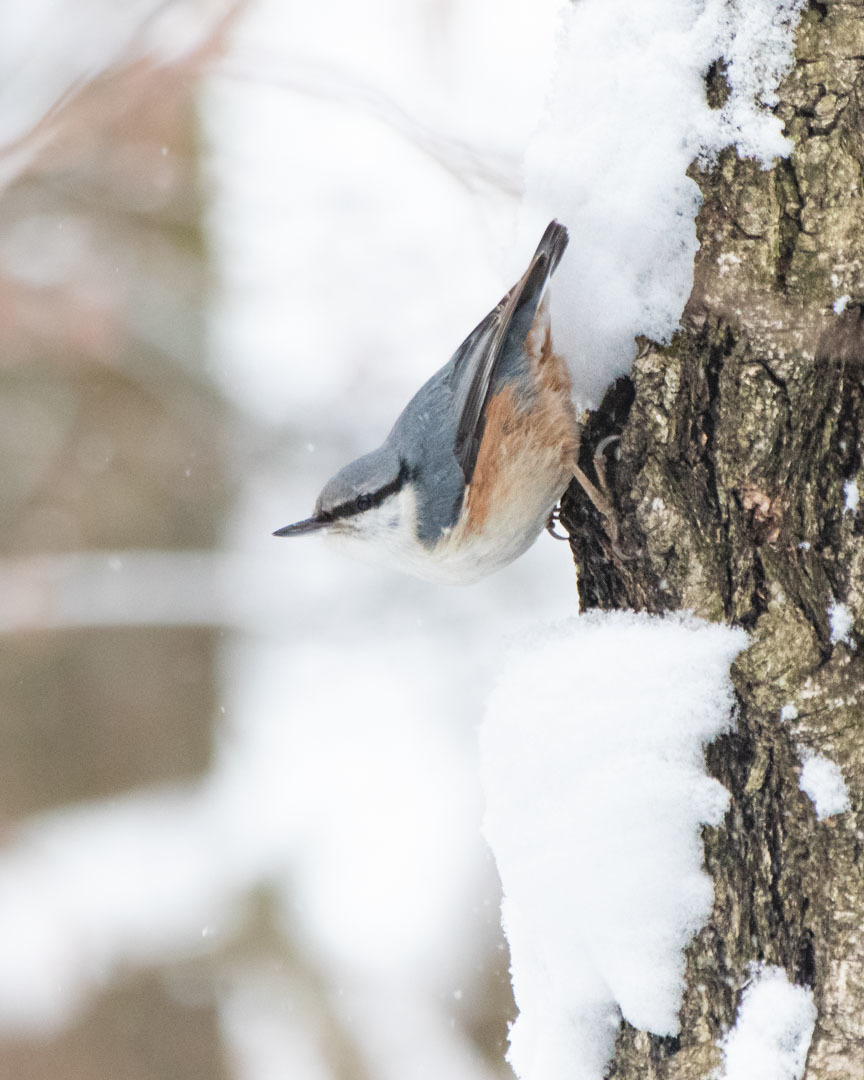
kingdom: Animalia
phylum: Chordata
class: Aves
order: Passeriformes
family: Sittidae
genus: Sitta
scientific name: Sitta europaea
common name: Eurasian nuthatch
